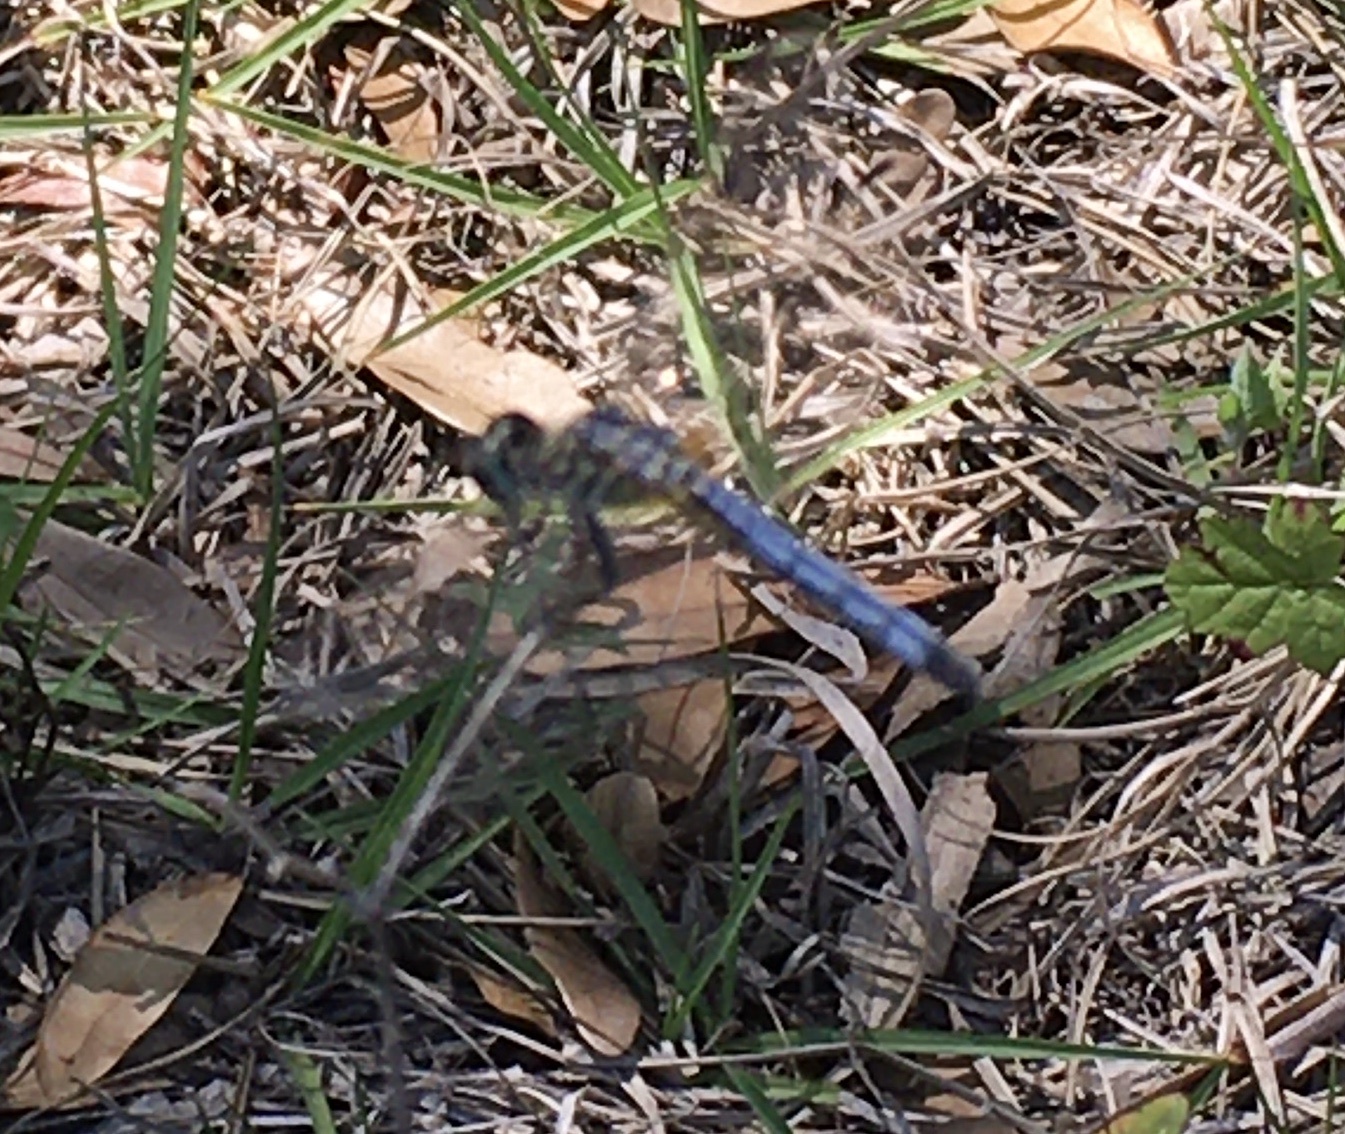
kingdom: Animalia
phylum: Arthropoda
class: Insecta
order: Odonata
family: Libellulidae
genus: Pachydiplax
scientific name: Pachydiplax longipennis
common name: Blue dasher
